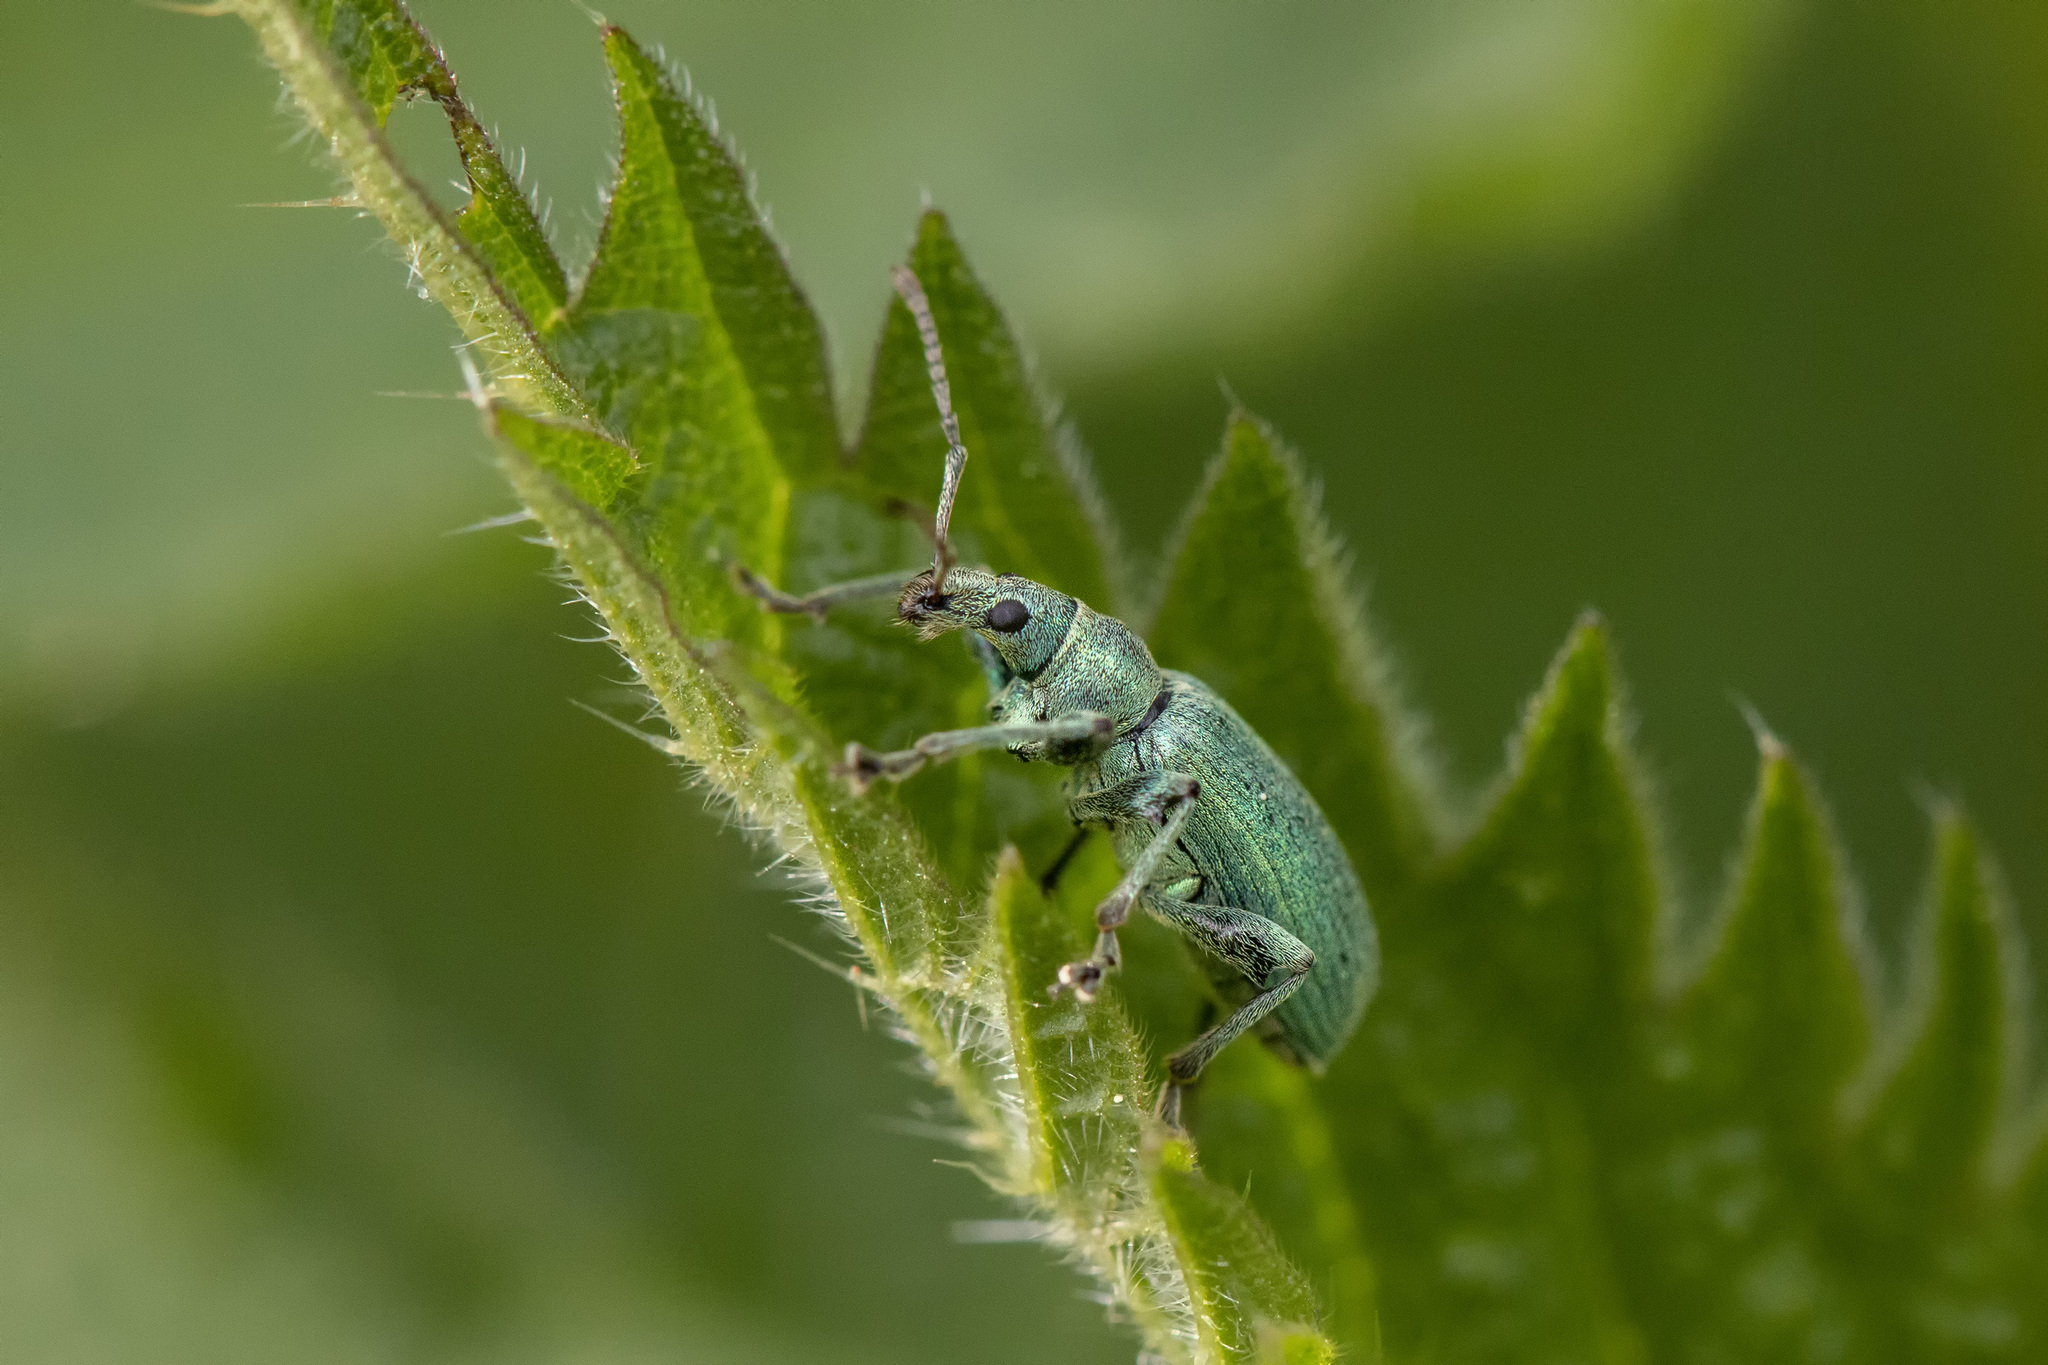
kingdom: Animalia
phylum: Arthropoda
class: Insecta
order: Coleoptera
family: Curculionidae
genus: Phyllobius
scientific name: Phyllobius pomaceus
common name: Green nettle weevil
